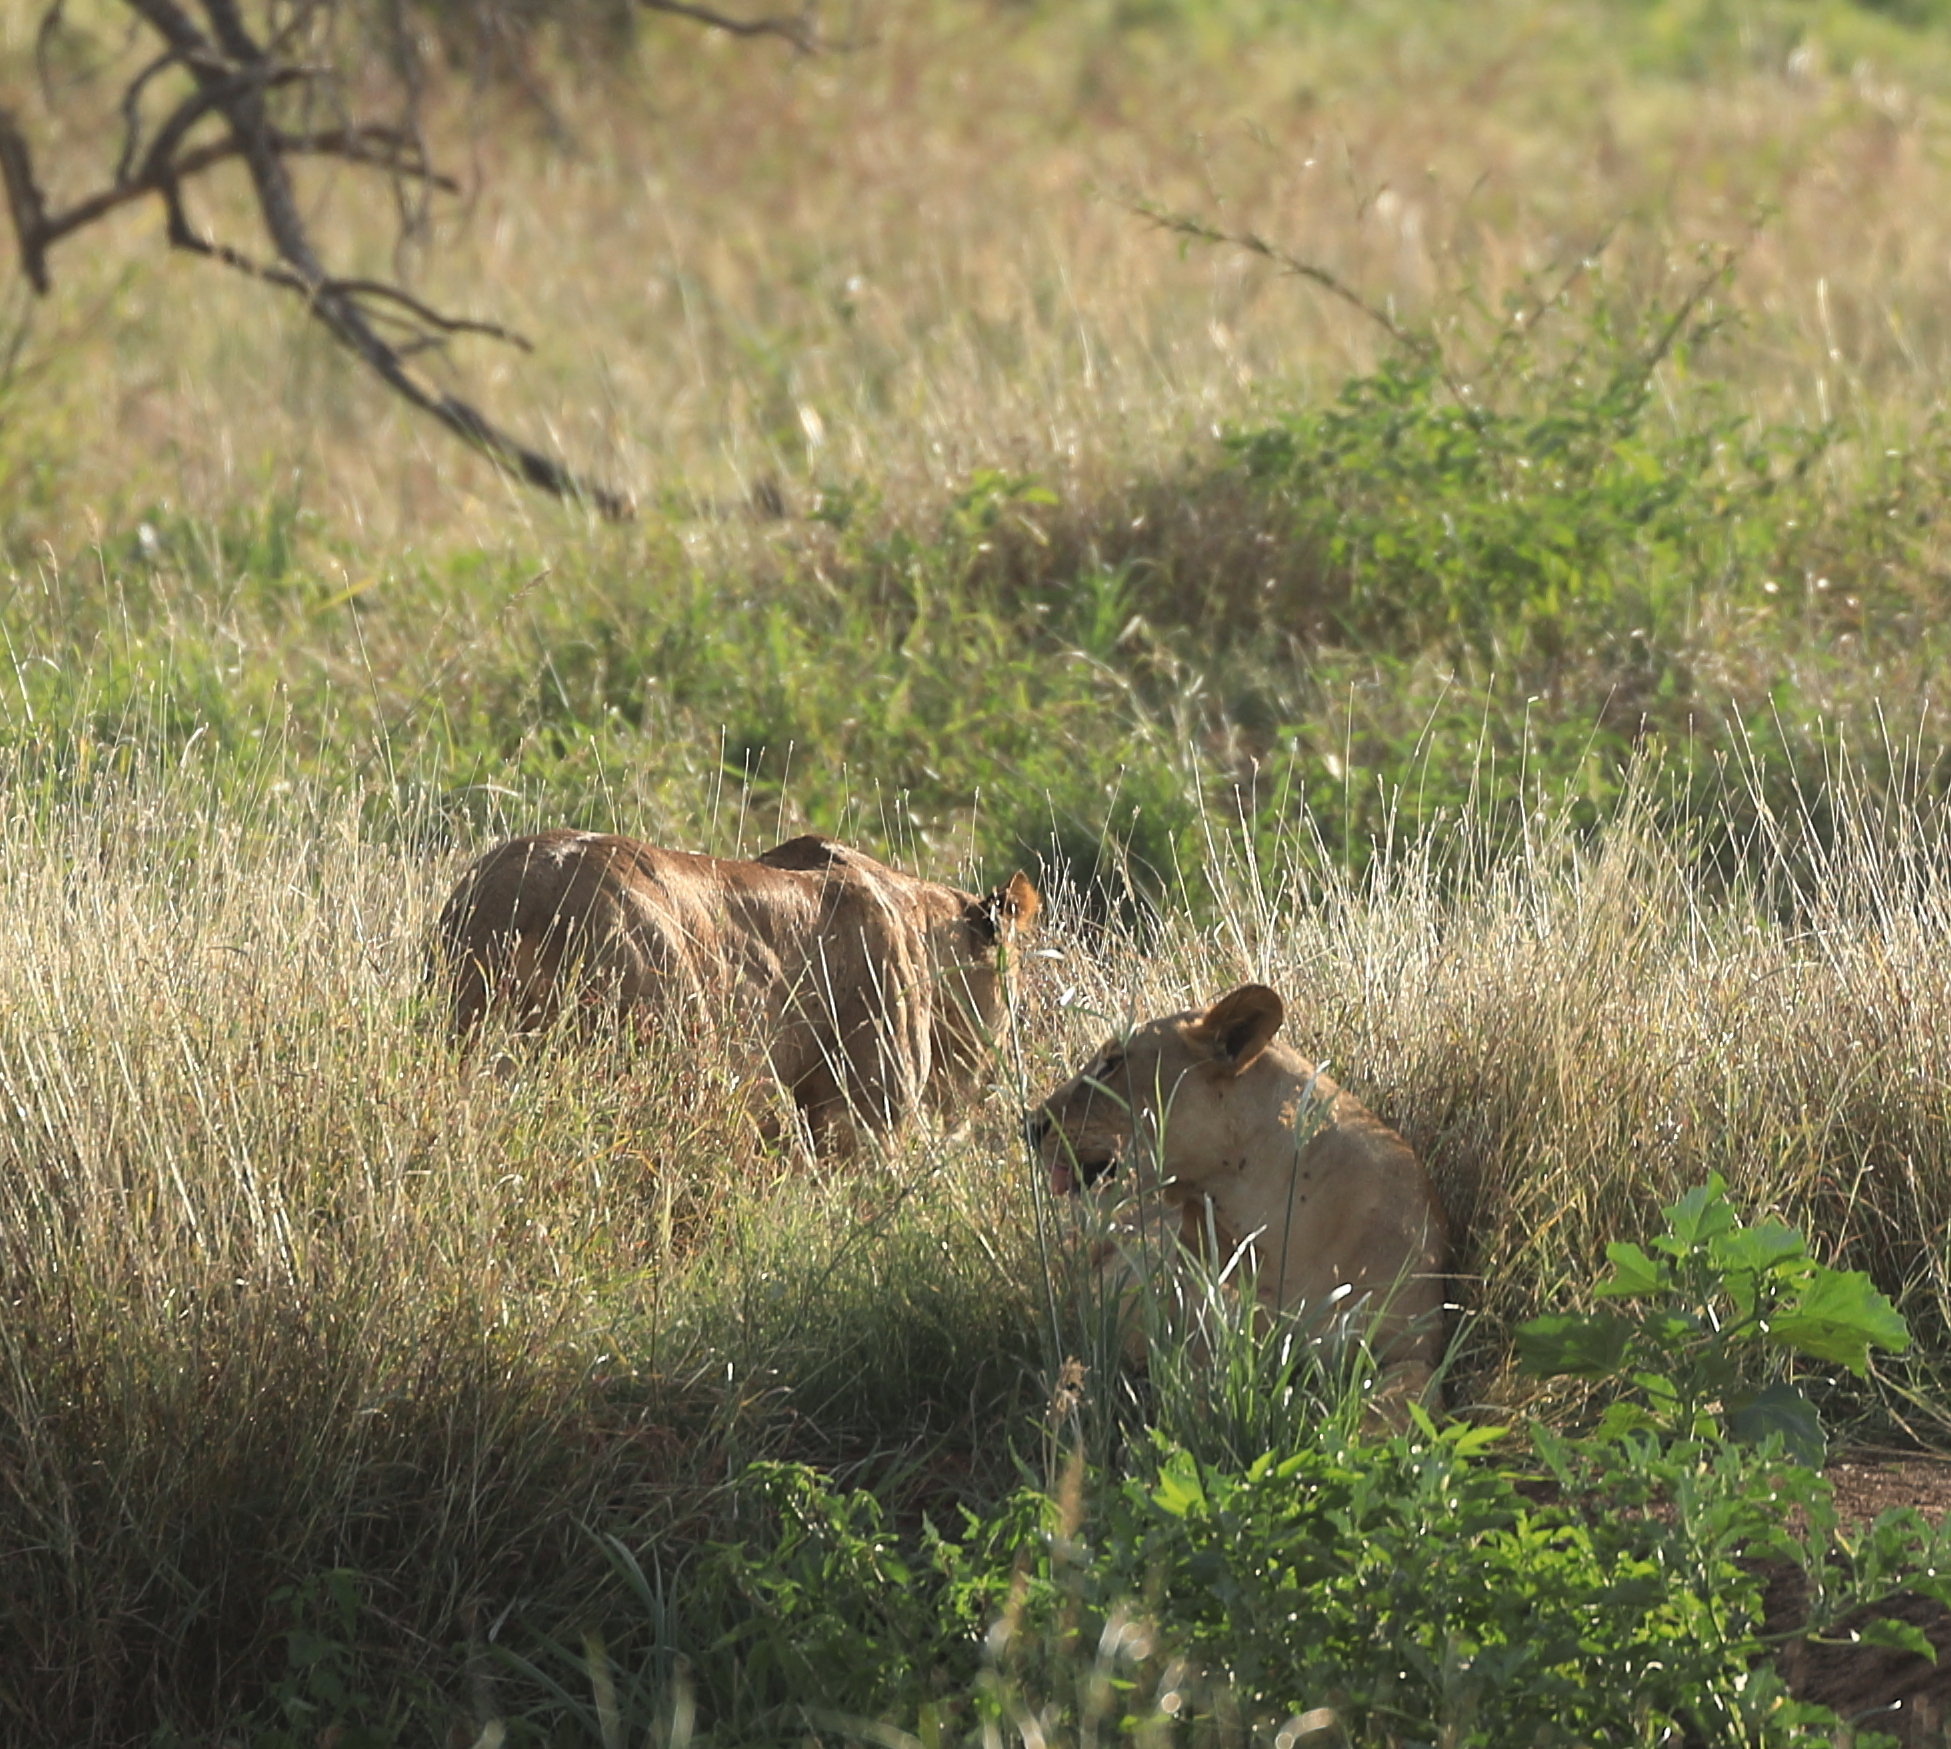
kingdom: Animalia
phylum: Chordata
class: Mammalia
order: Carnivora
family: Felidae
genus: Panthera
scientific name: Panthera leo
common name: Lion
